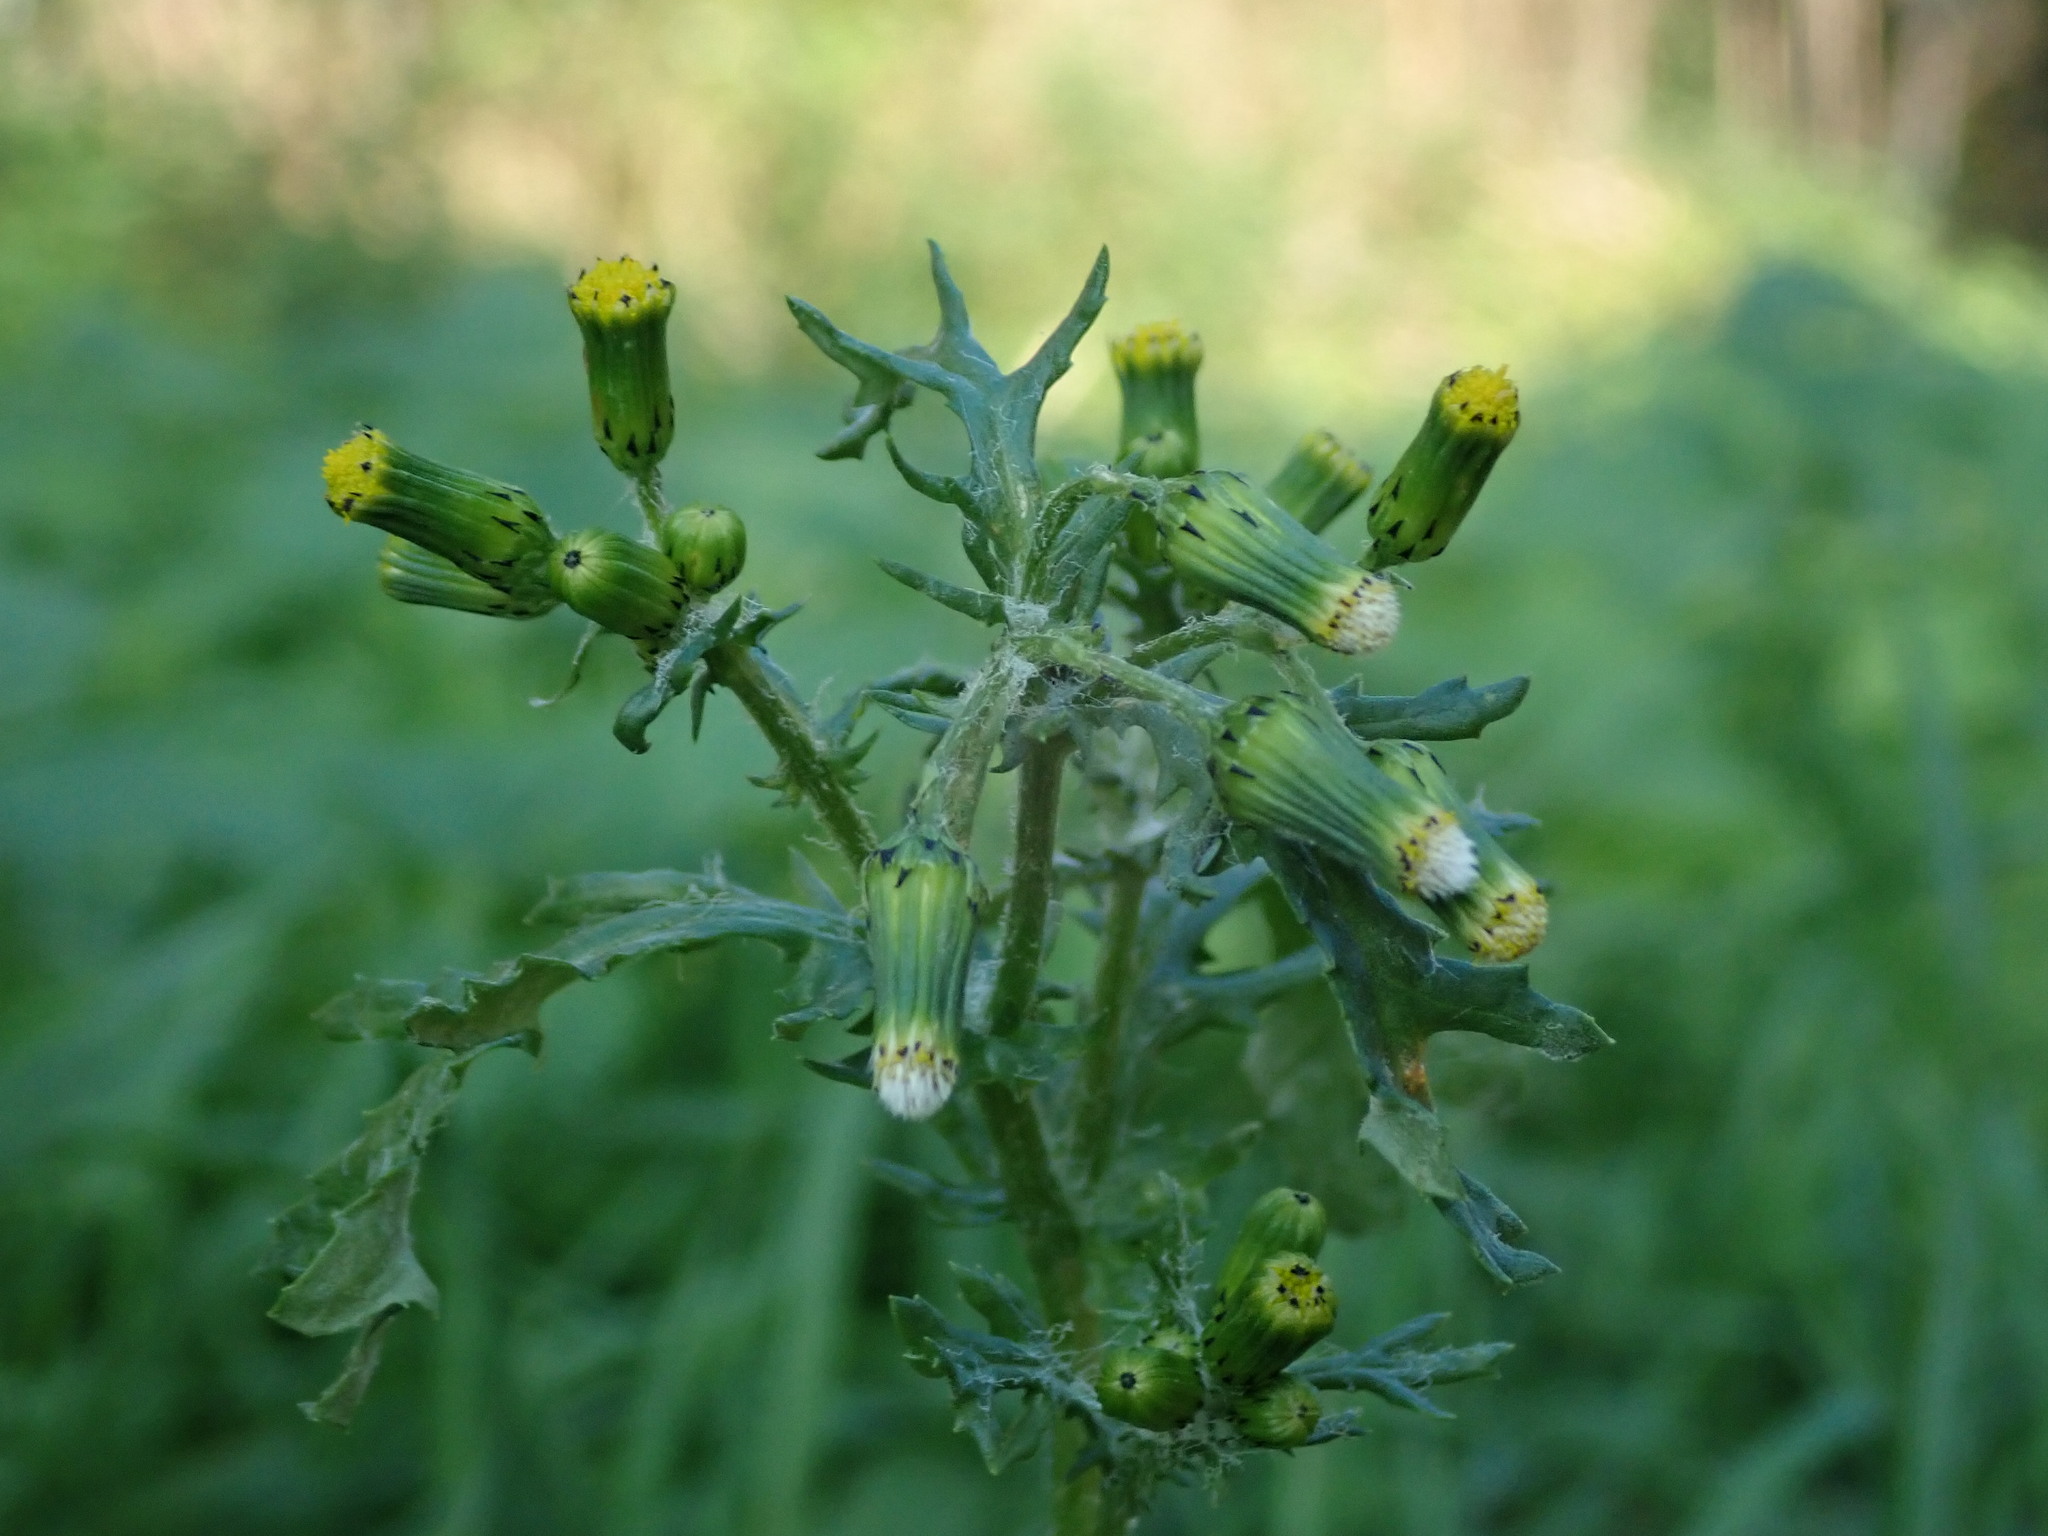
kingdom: Plantae
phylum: Tracheophyta
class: Magnoliopsida
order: Asterales
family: Asteraceae
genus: Senecio
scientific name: Senecio vulgaris
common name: Old-man-in-the-spring
